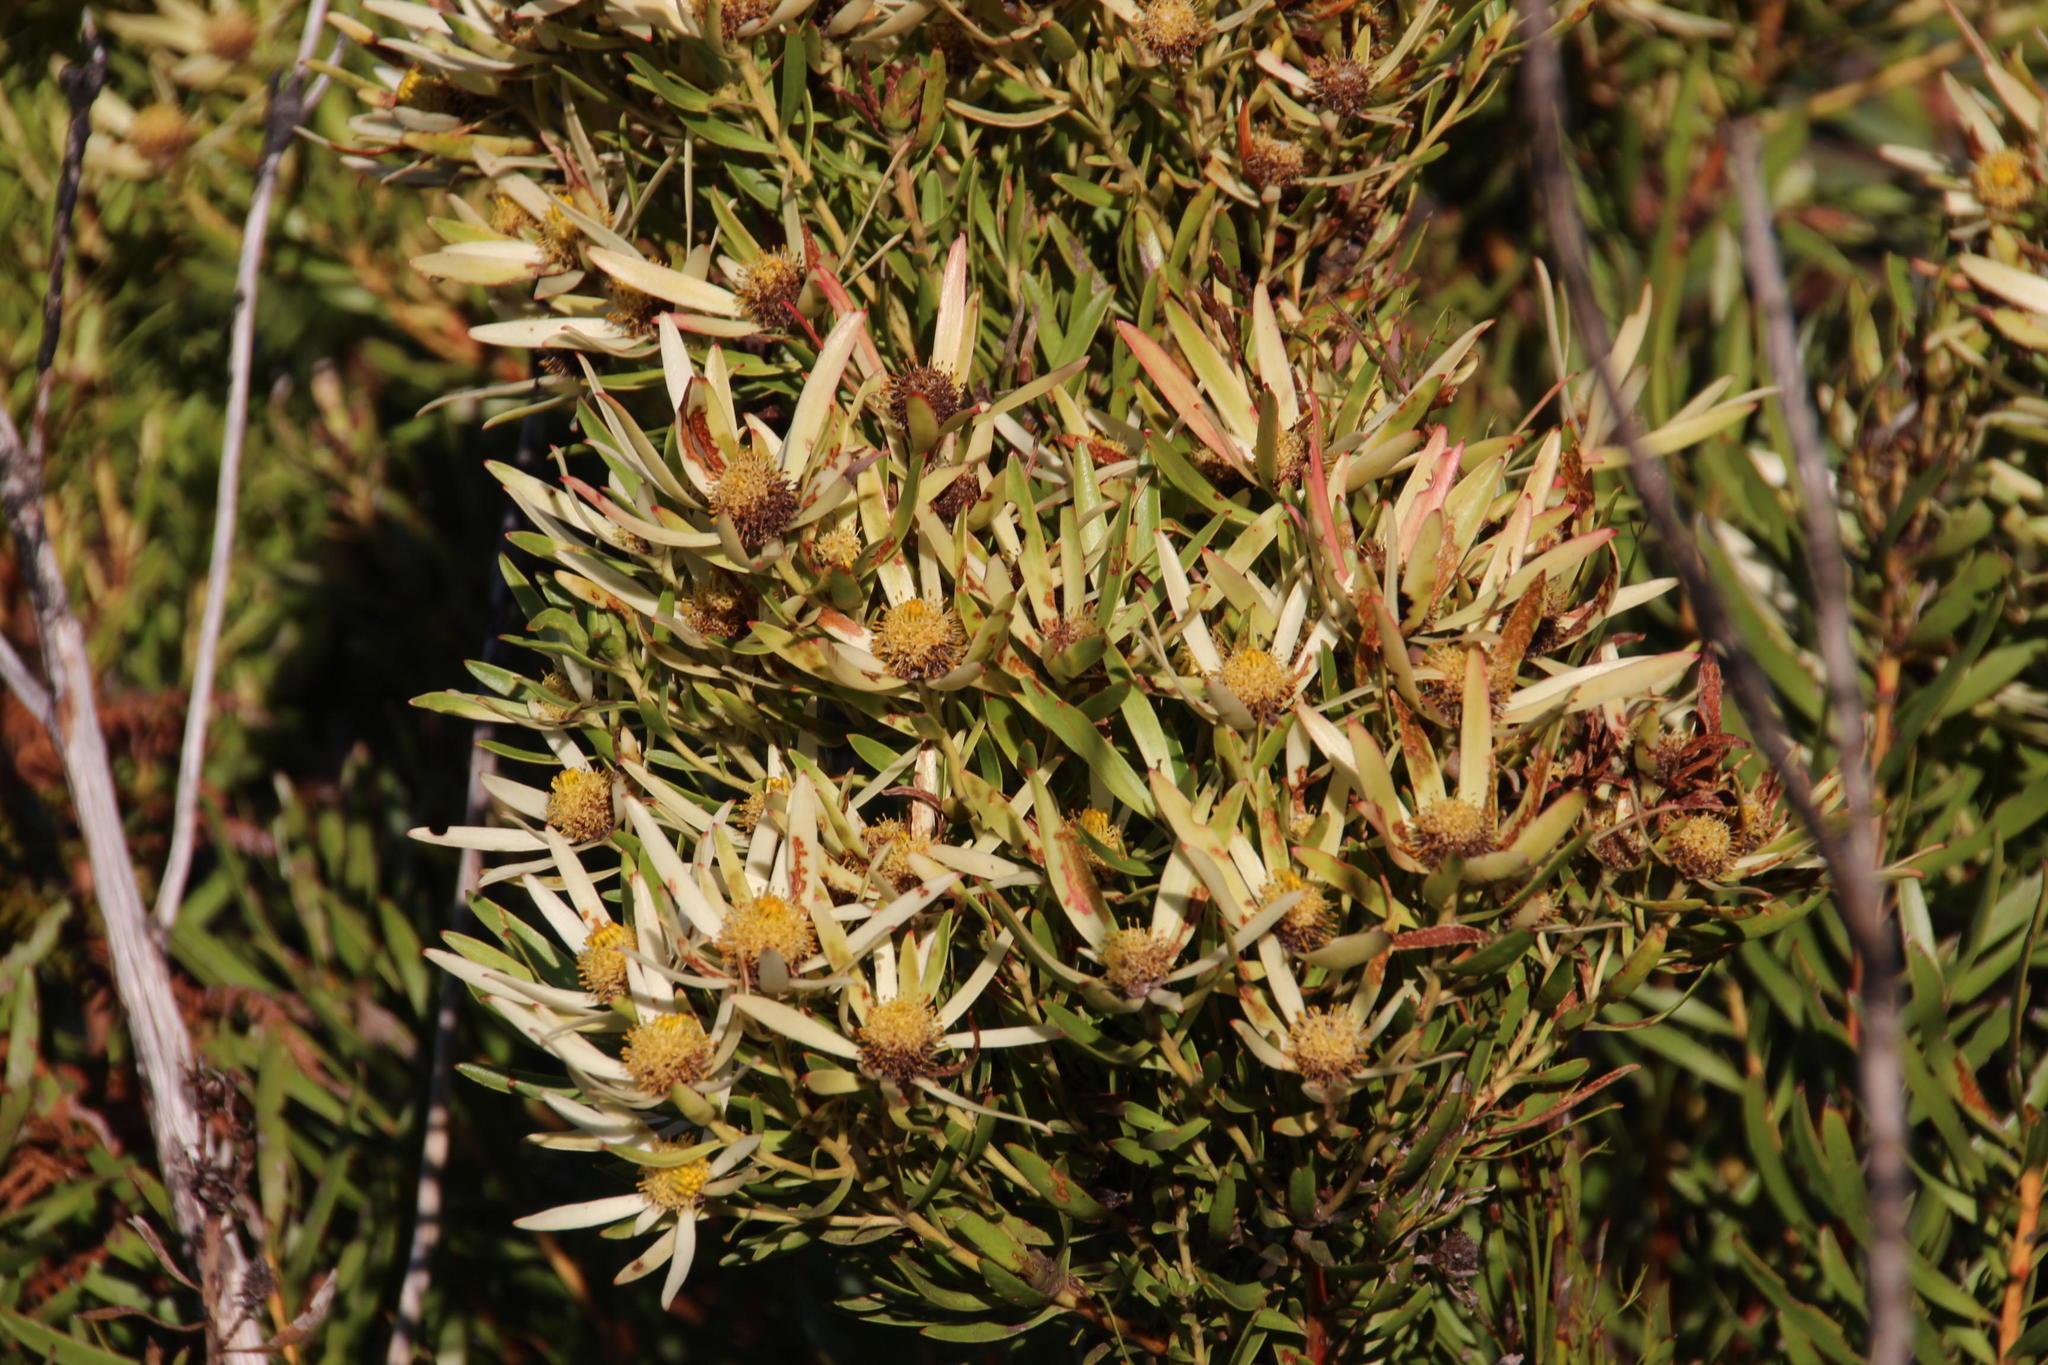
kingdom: Plantae
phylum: Tracheophyta
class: Magnoliopsida
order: Proteales
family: Proteaceae
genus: Leucadendron
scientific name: Leucadendron spissifolium
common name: Spear-leaf conebush
